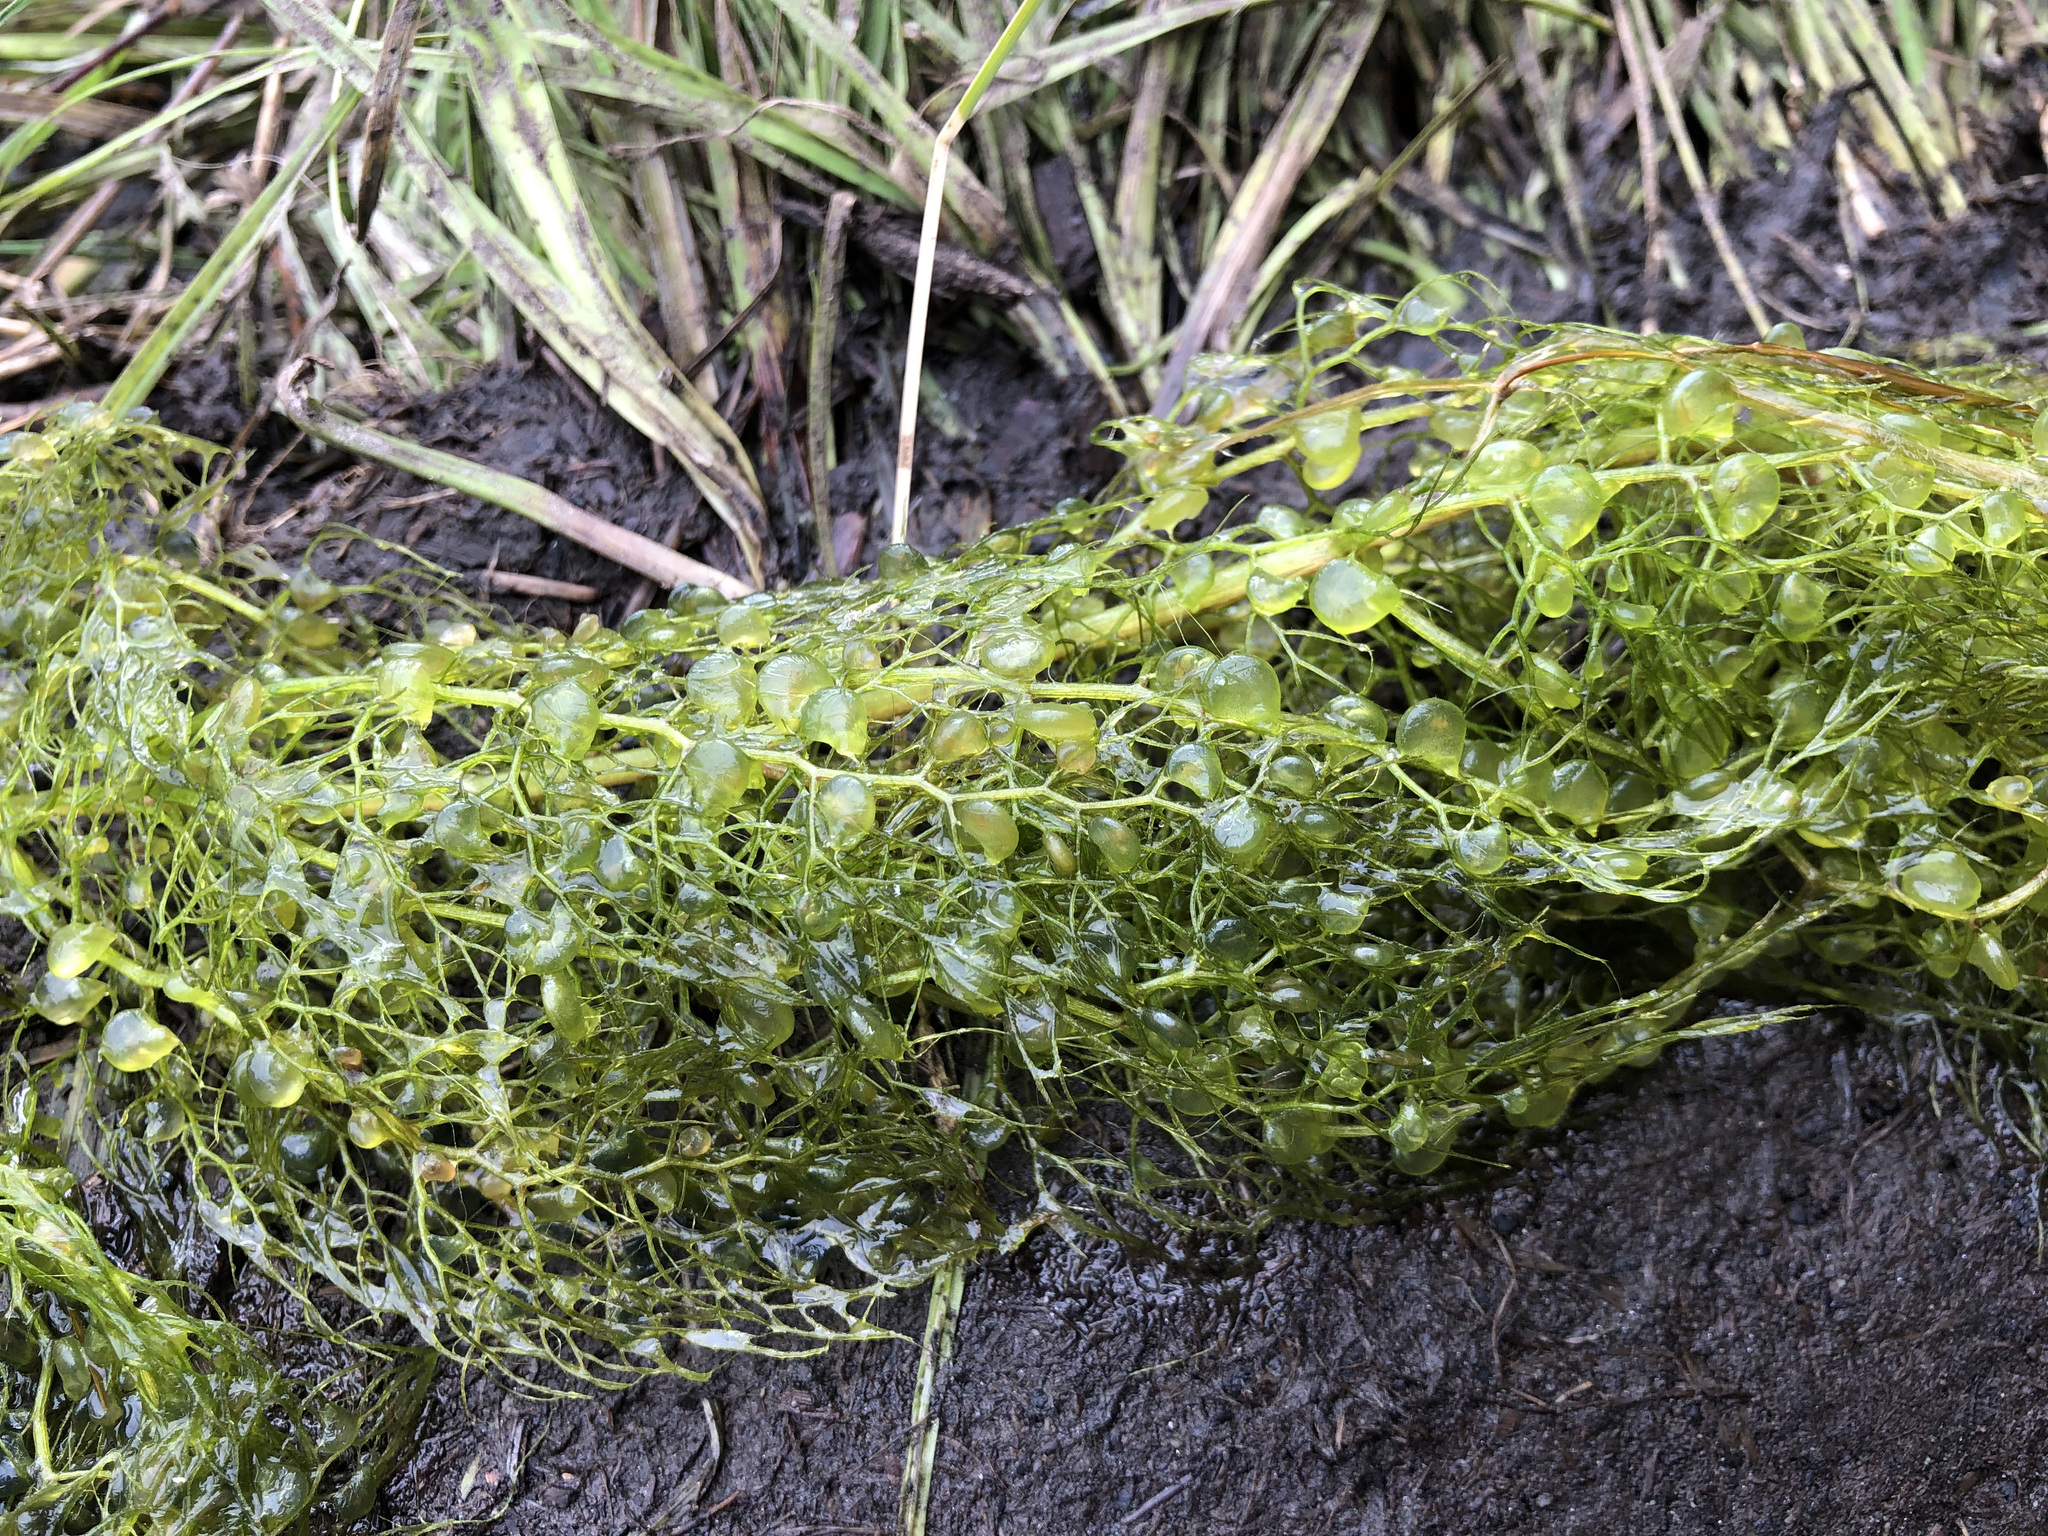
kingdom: Plantae
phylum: Tracheophyta
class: Magnoliopsida
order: Lamiales
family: Lentibulariaceae
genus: Utricularia
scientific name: Utricularia macrorhiza
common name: Common bladderwort
